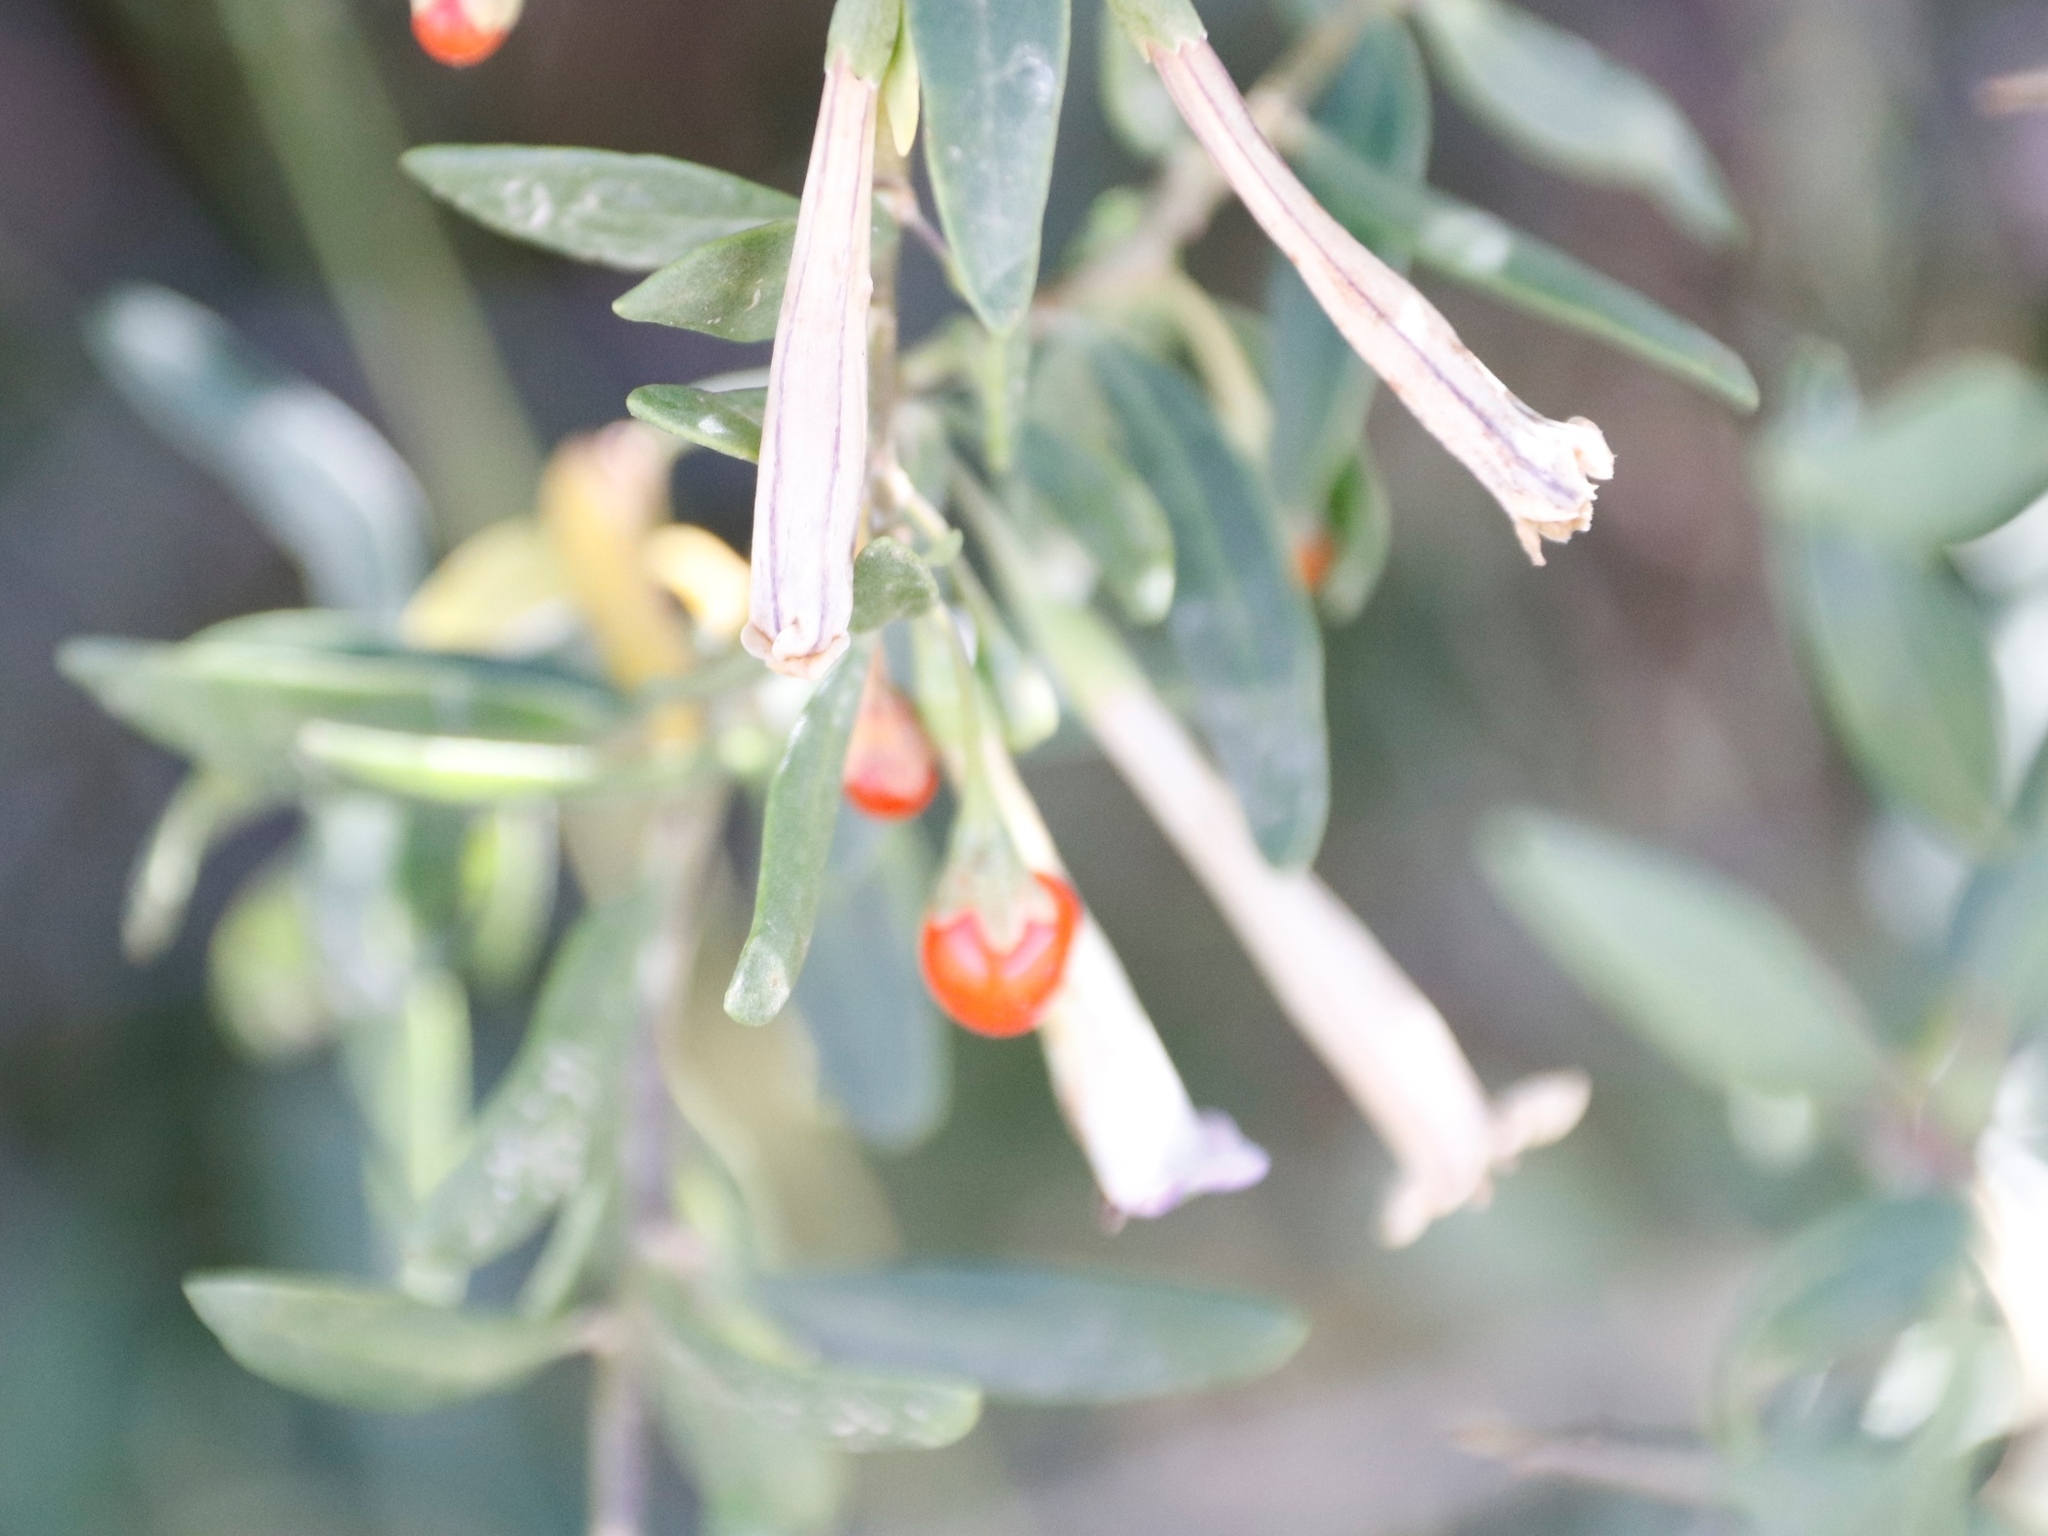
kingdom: Plantae
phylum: Tracheophyta
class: Magnoliopsida
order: Solanales
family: Solanaceae
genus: Lycium
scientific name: Lycium oxycarpum
